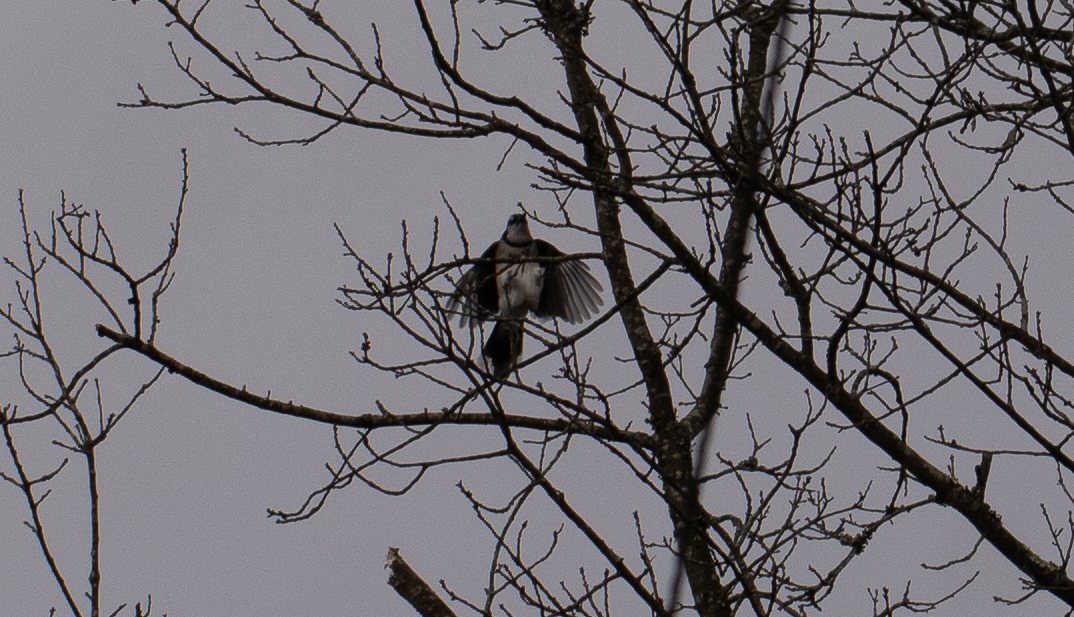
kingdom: Animalia
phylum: Chordata
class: Aves
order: Passeriformes
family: Corvidae
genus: Cyanocitta
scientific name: Cyanocitta cristata
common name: Blue jay
